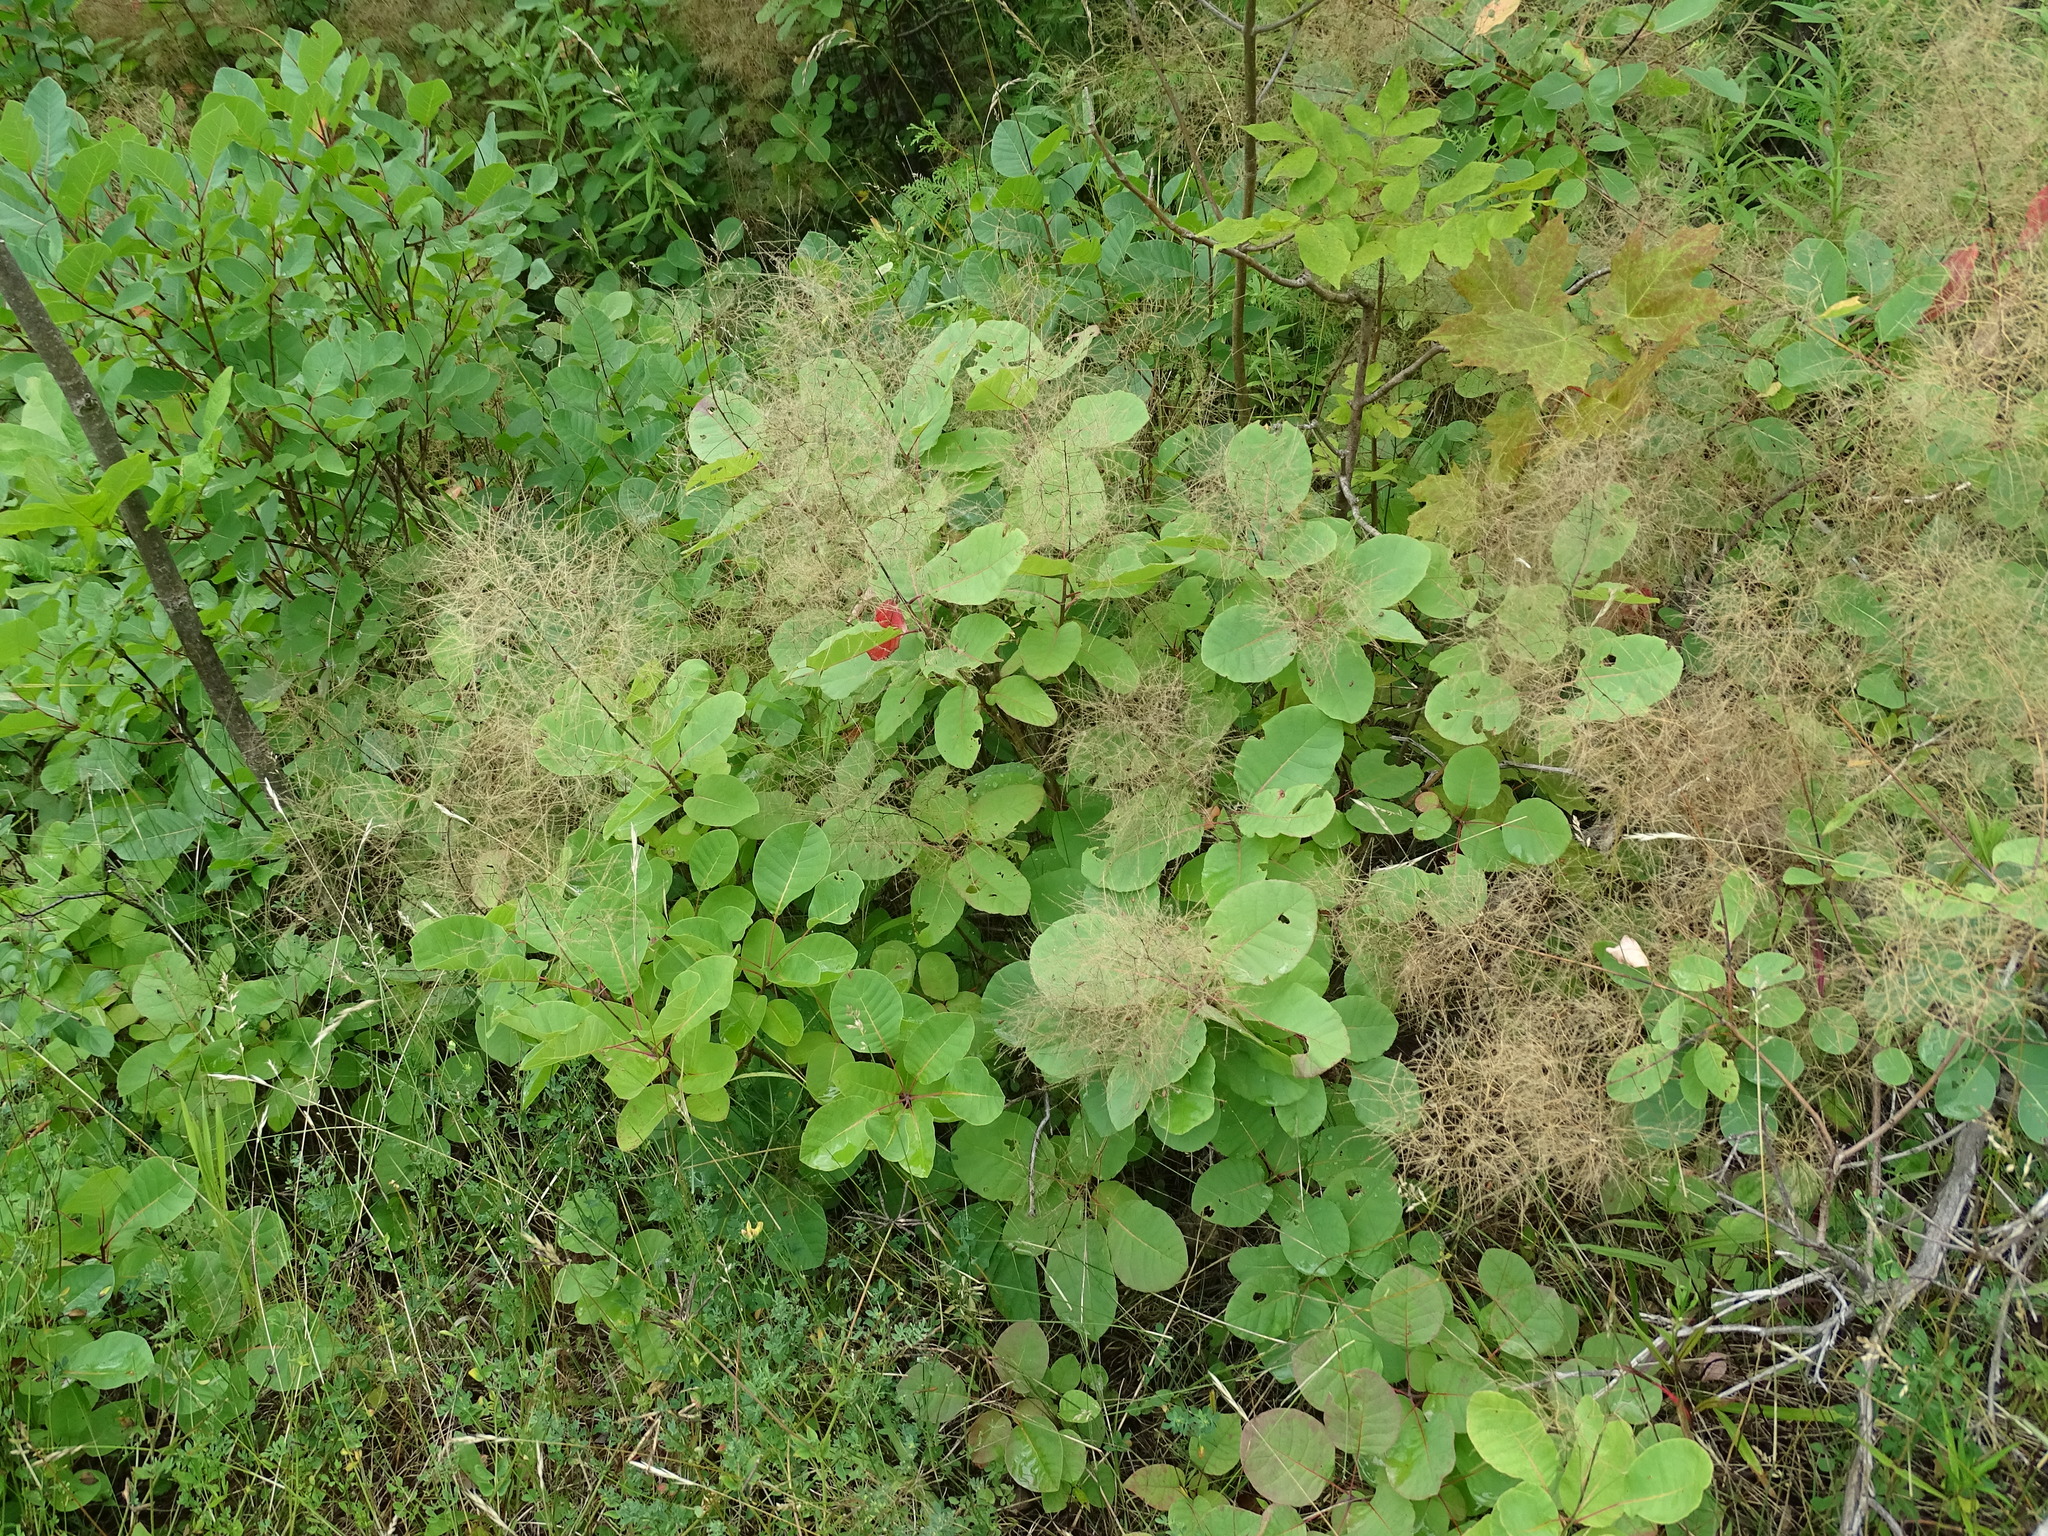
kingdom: Plantae
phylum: Tracheophyta
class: Magnoliopsida
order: Sapindales
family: Anacardiaceae
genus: Cotinus
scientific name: Cotinus coggygria
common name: Smoke-tree
